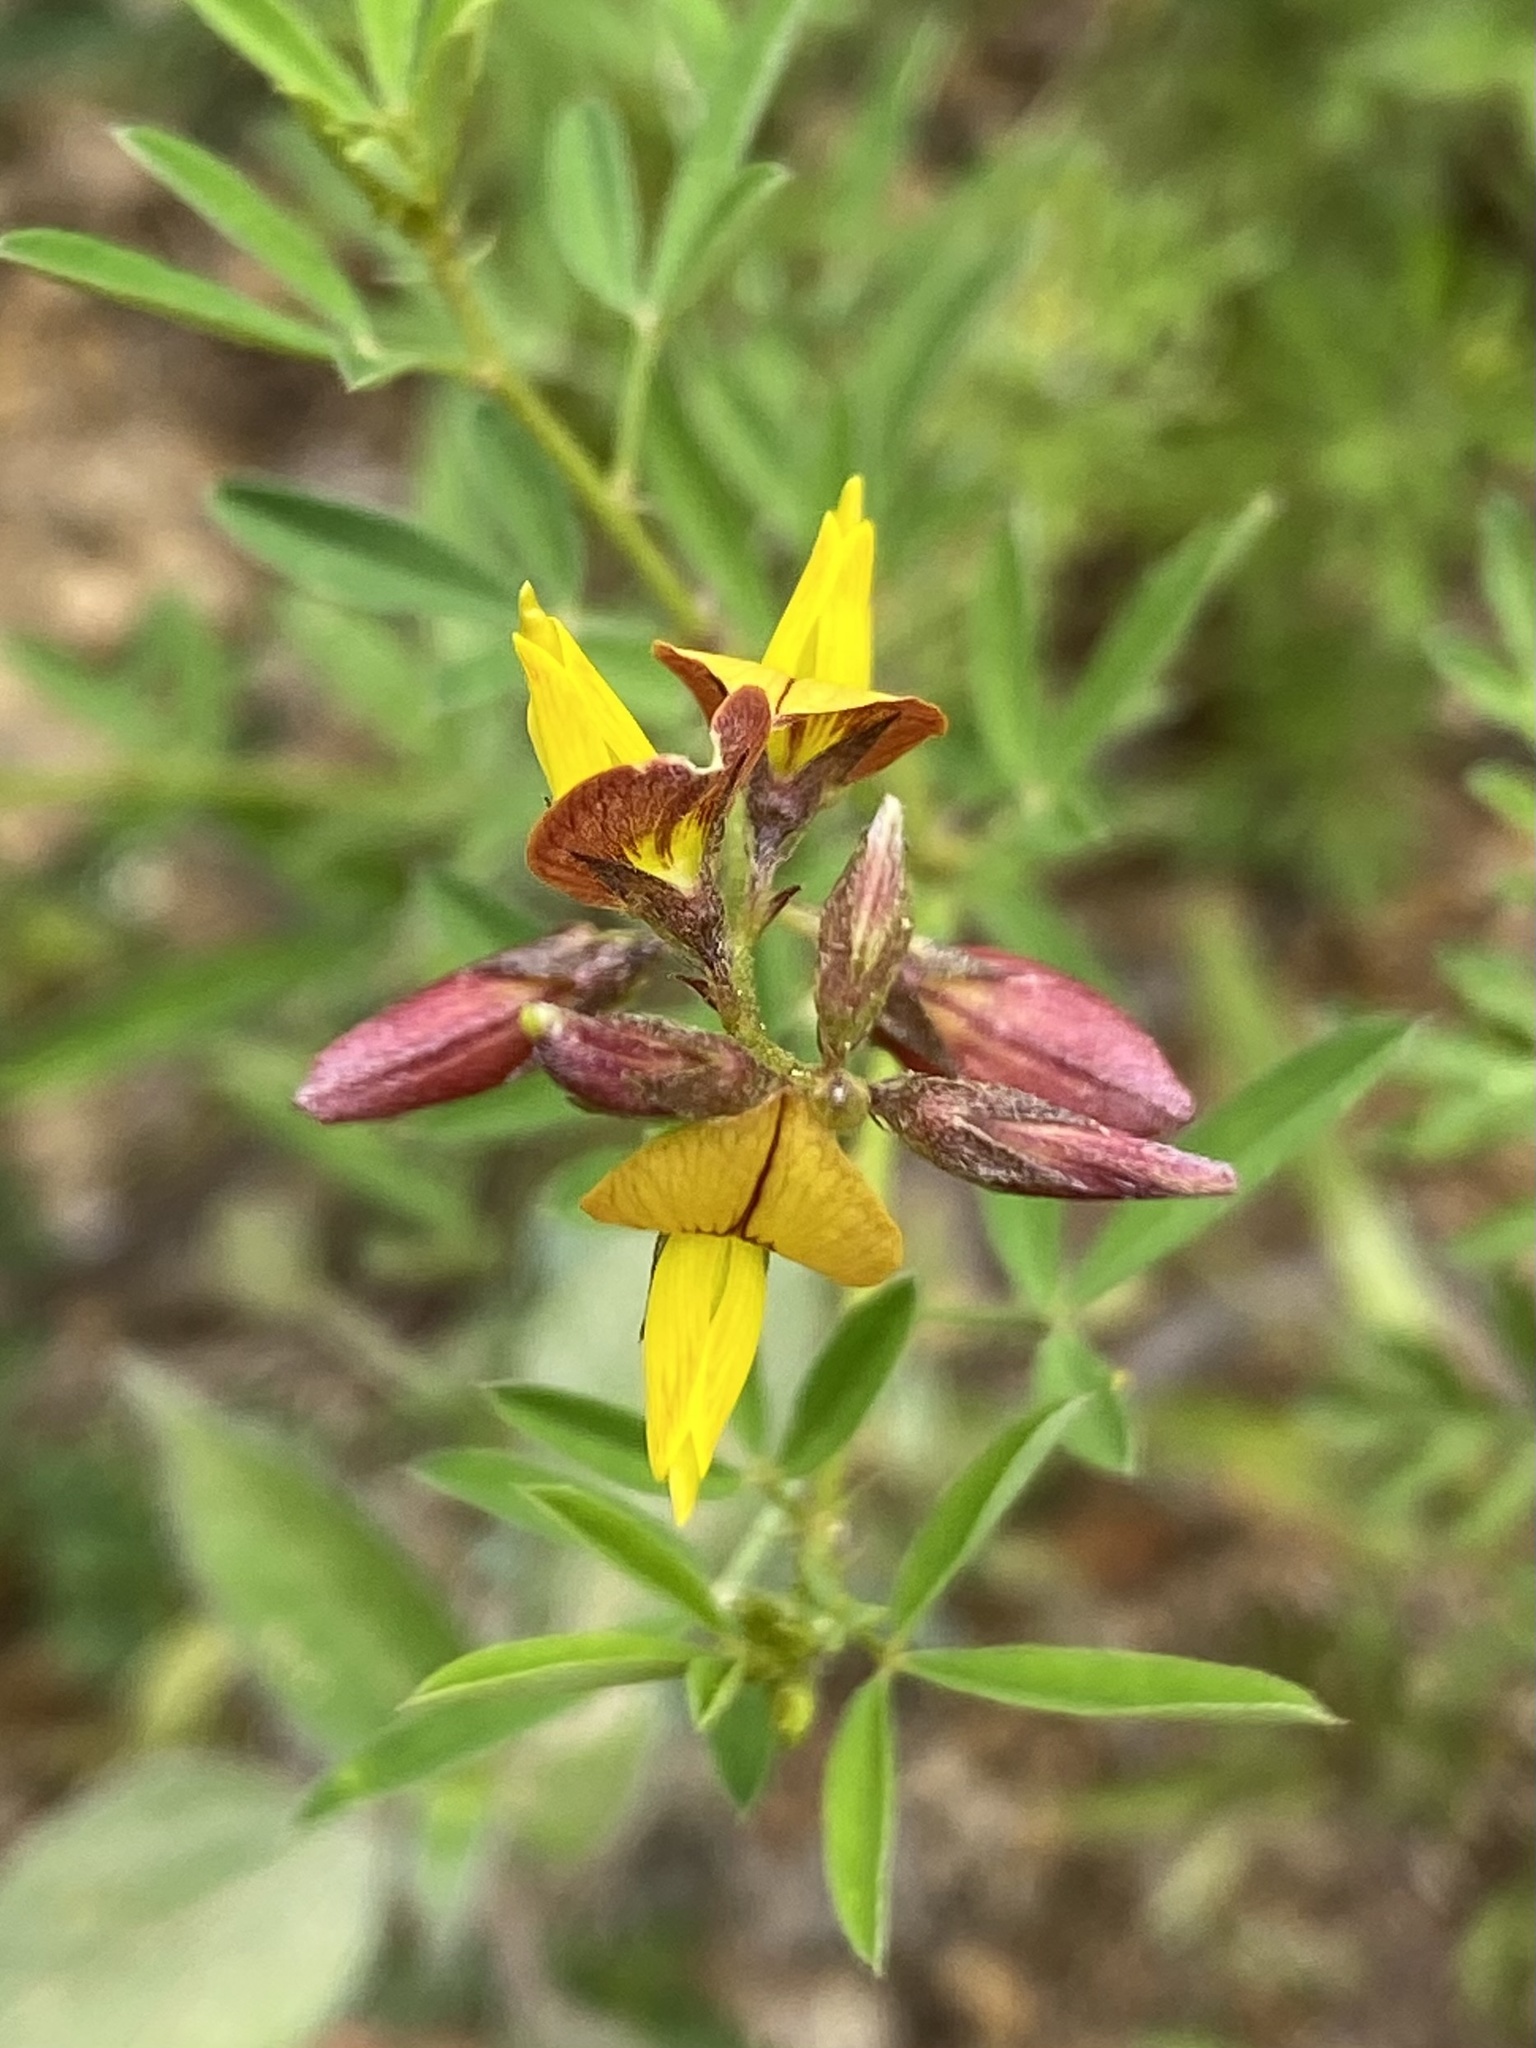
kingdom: Plantae
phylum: Tracheophyta
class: Magnoliopsida
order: Fabales
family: Fabaceae
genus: Crotalaria
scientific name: Crotalaria pumila
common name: Low rattlebox
